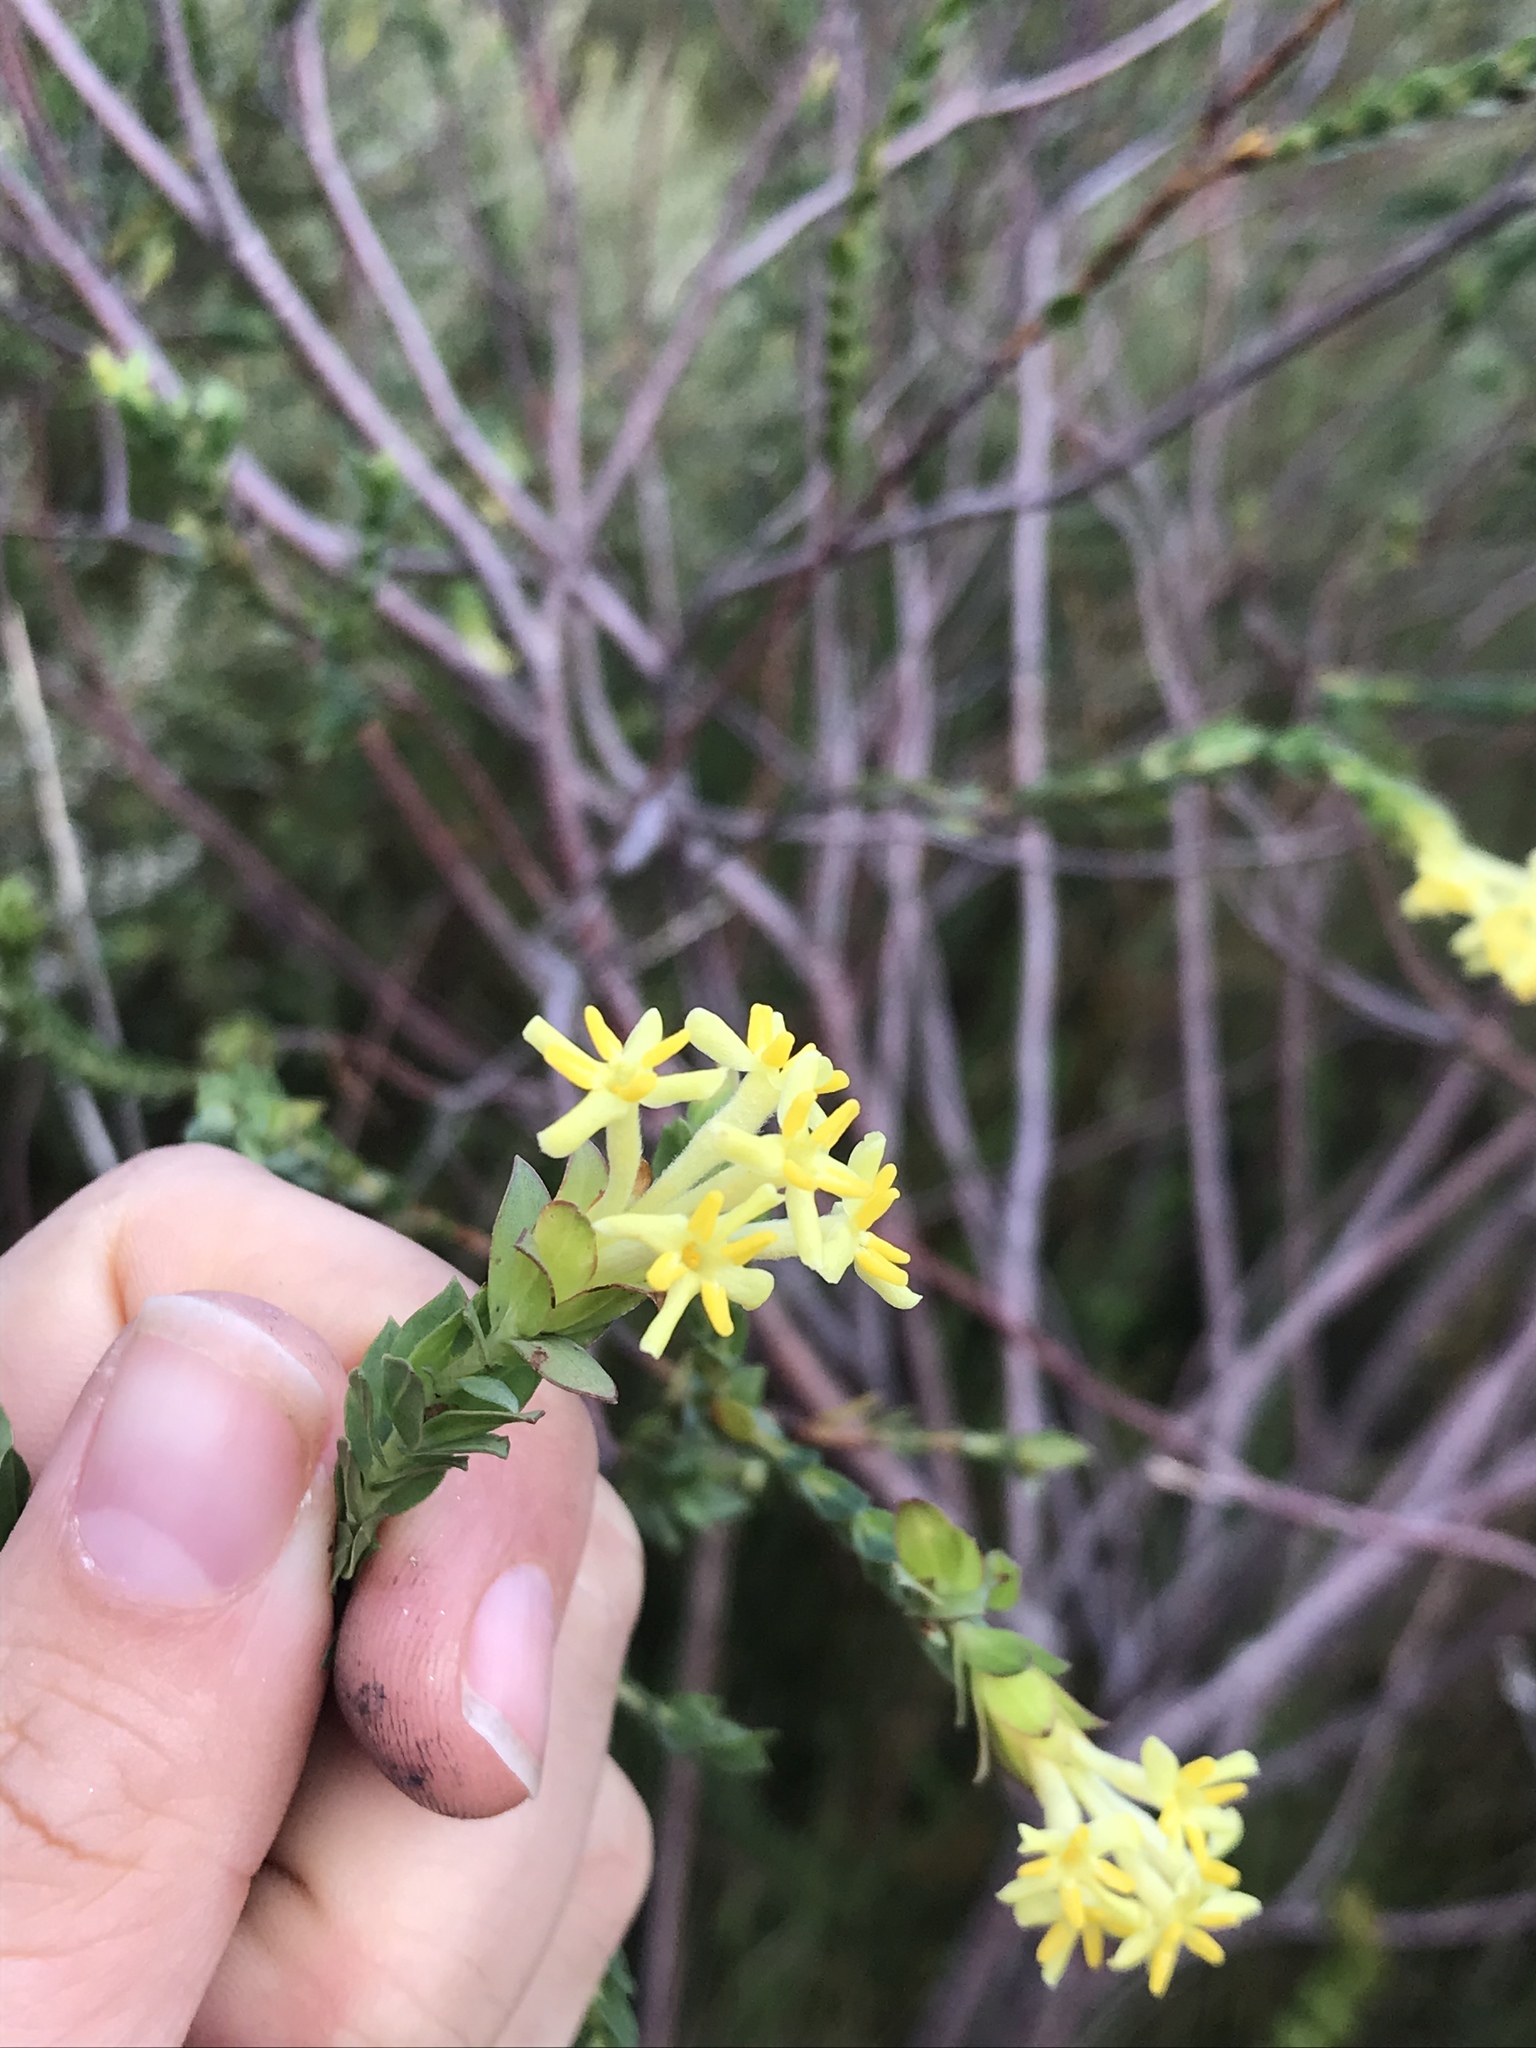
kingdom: Plantae
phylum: Tracheophyta
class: Magnoliopsida
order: Malvales
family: Thymelaeaceae
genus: Gnidia
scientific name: Gnidia oppositifolia
